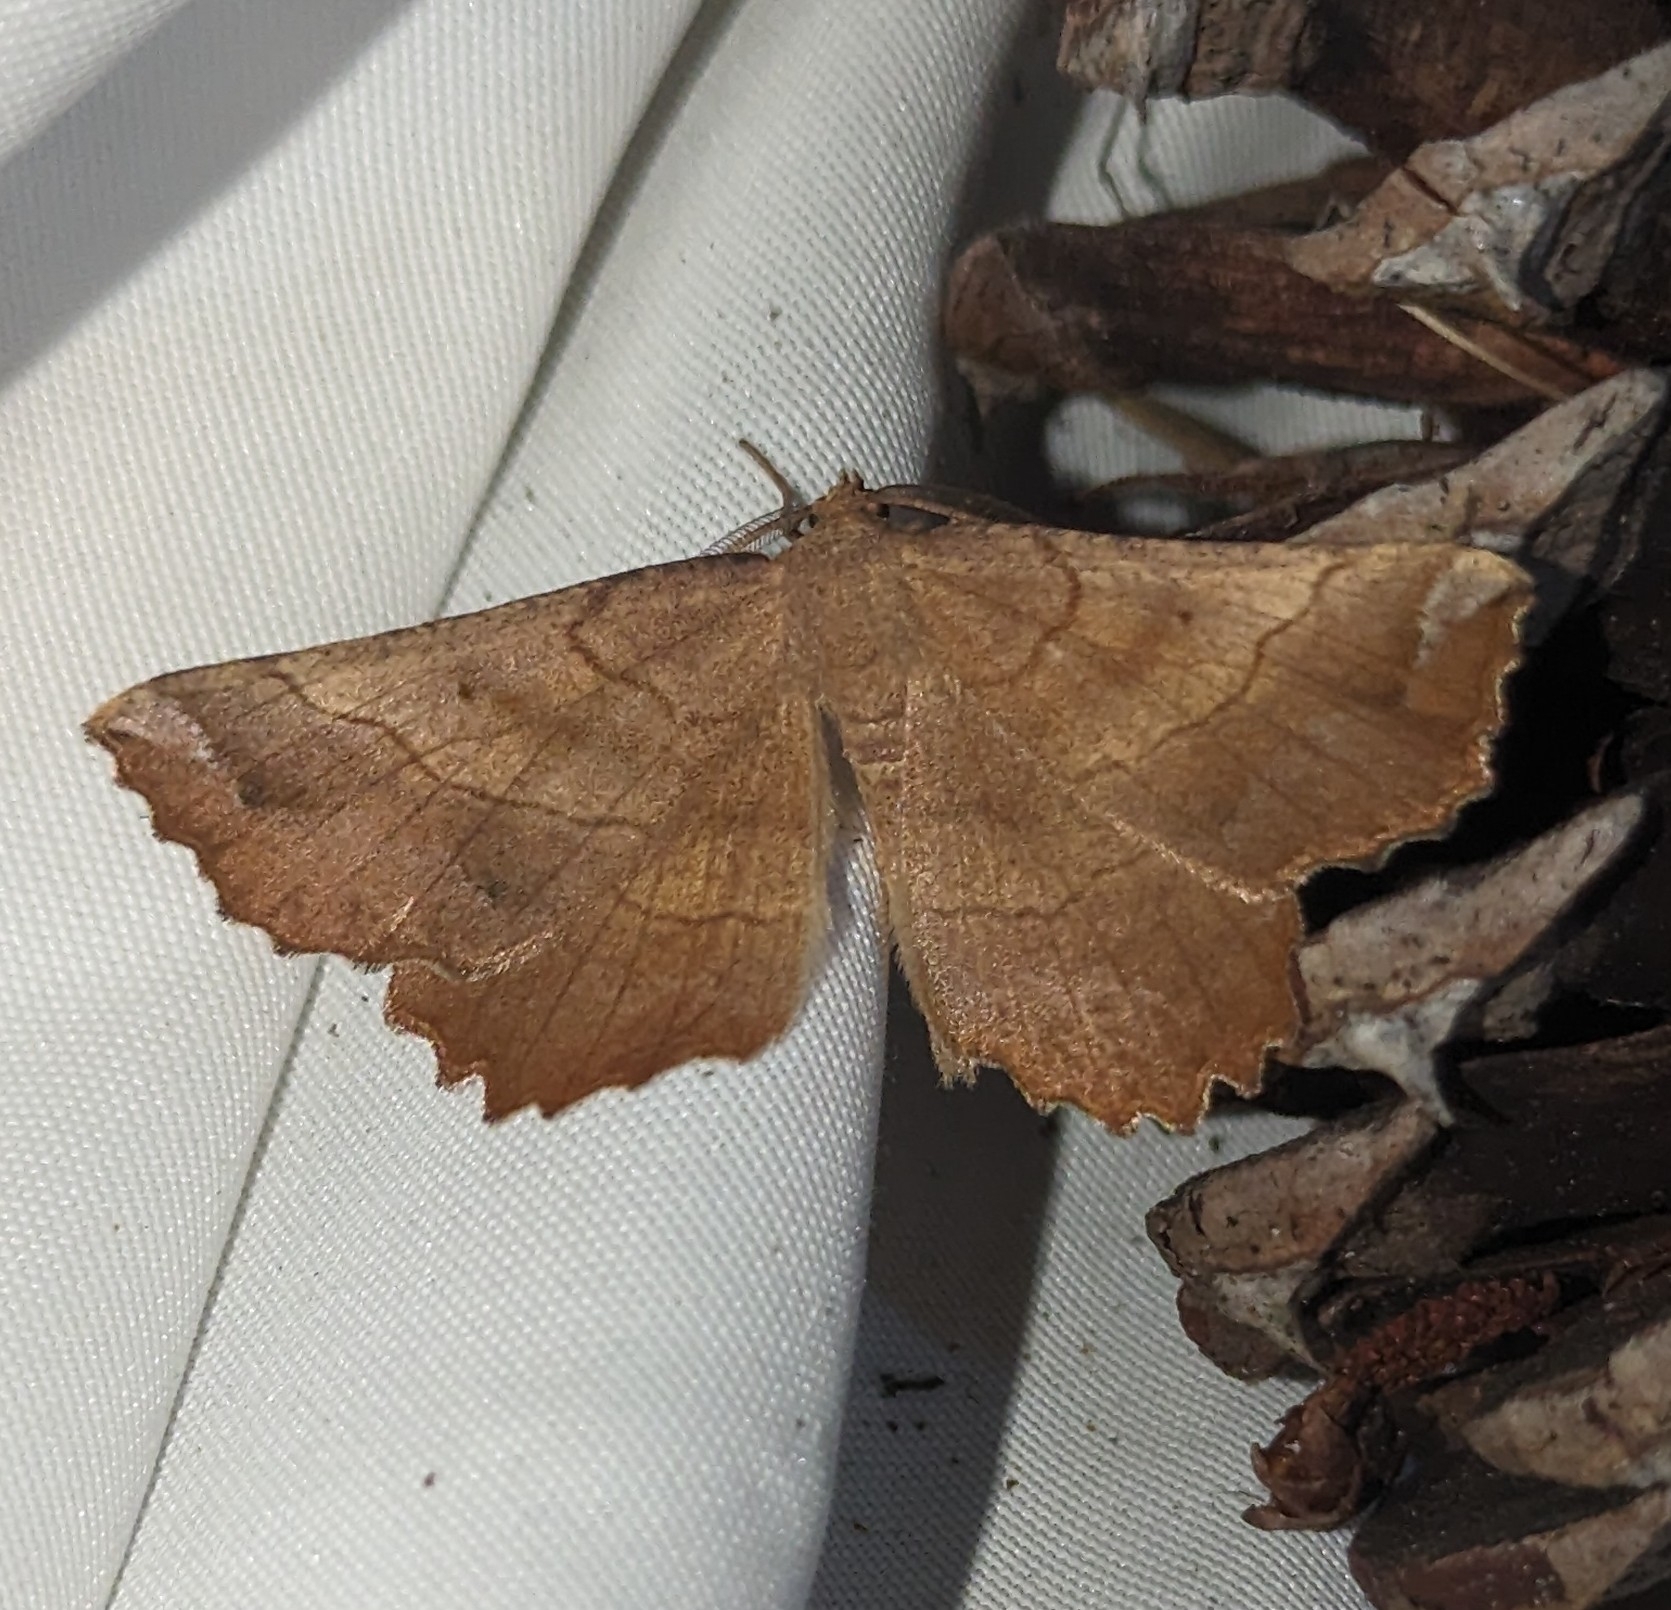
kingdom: Animalia
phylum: Arthropoda
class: Insecta
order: Lepidoptera
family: Geometridae
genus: Euchlaena
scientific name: Euchlaena johnsonaria
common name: Johnson's euchlaena
